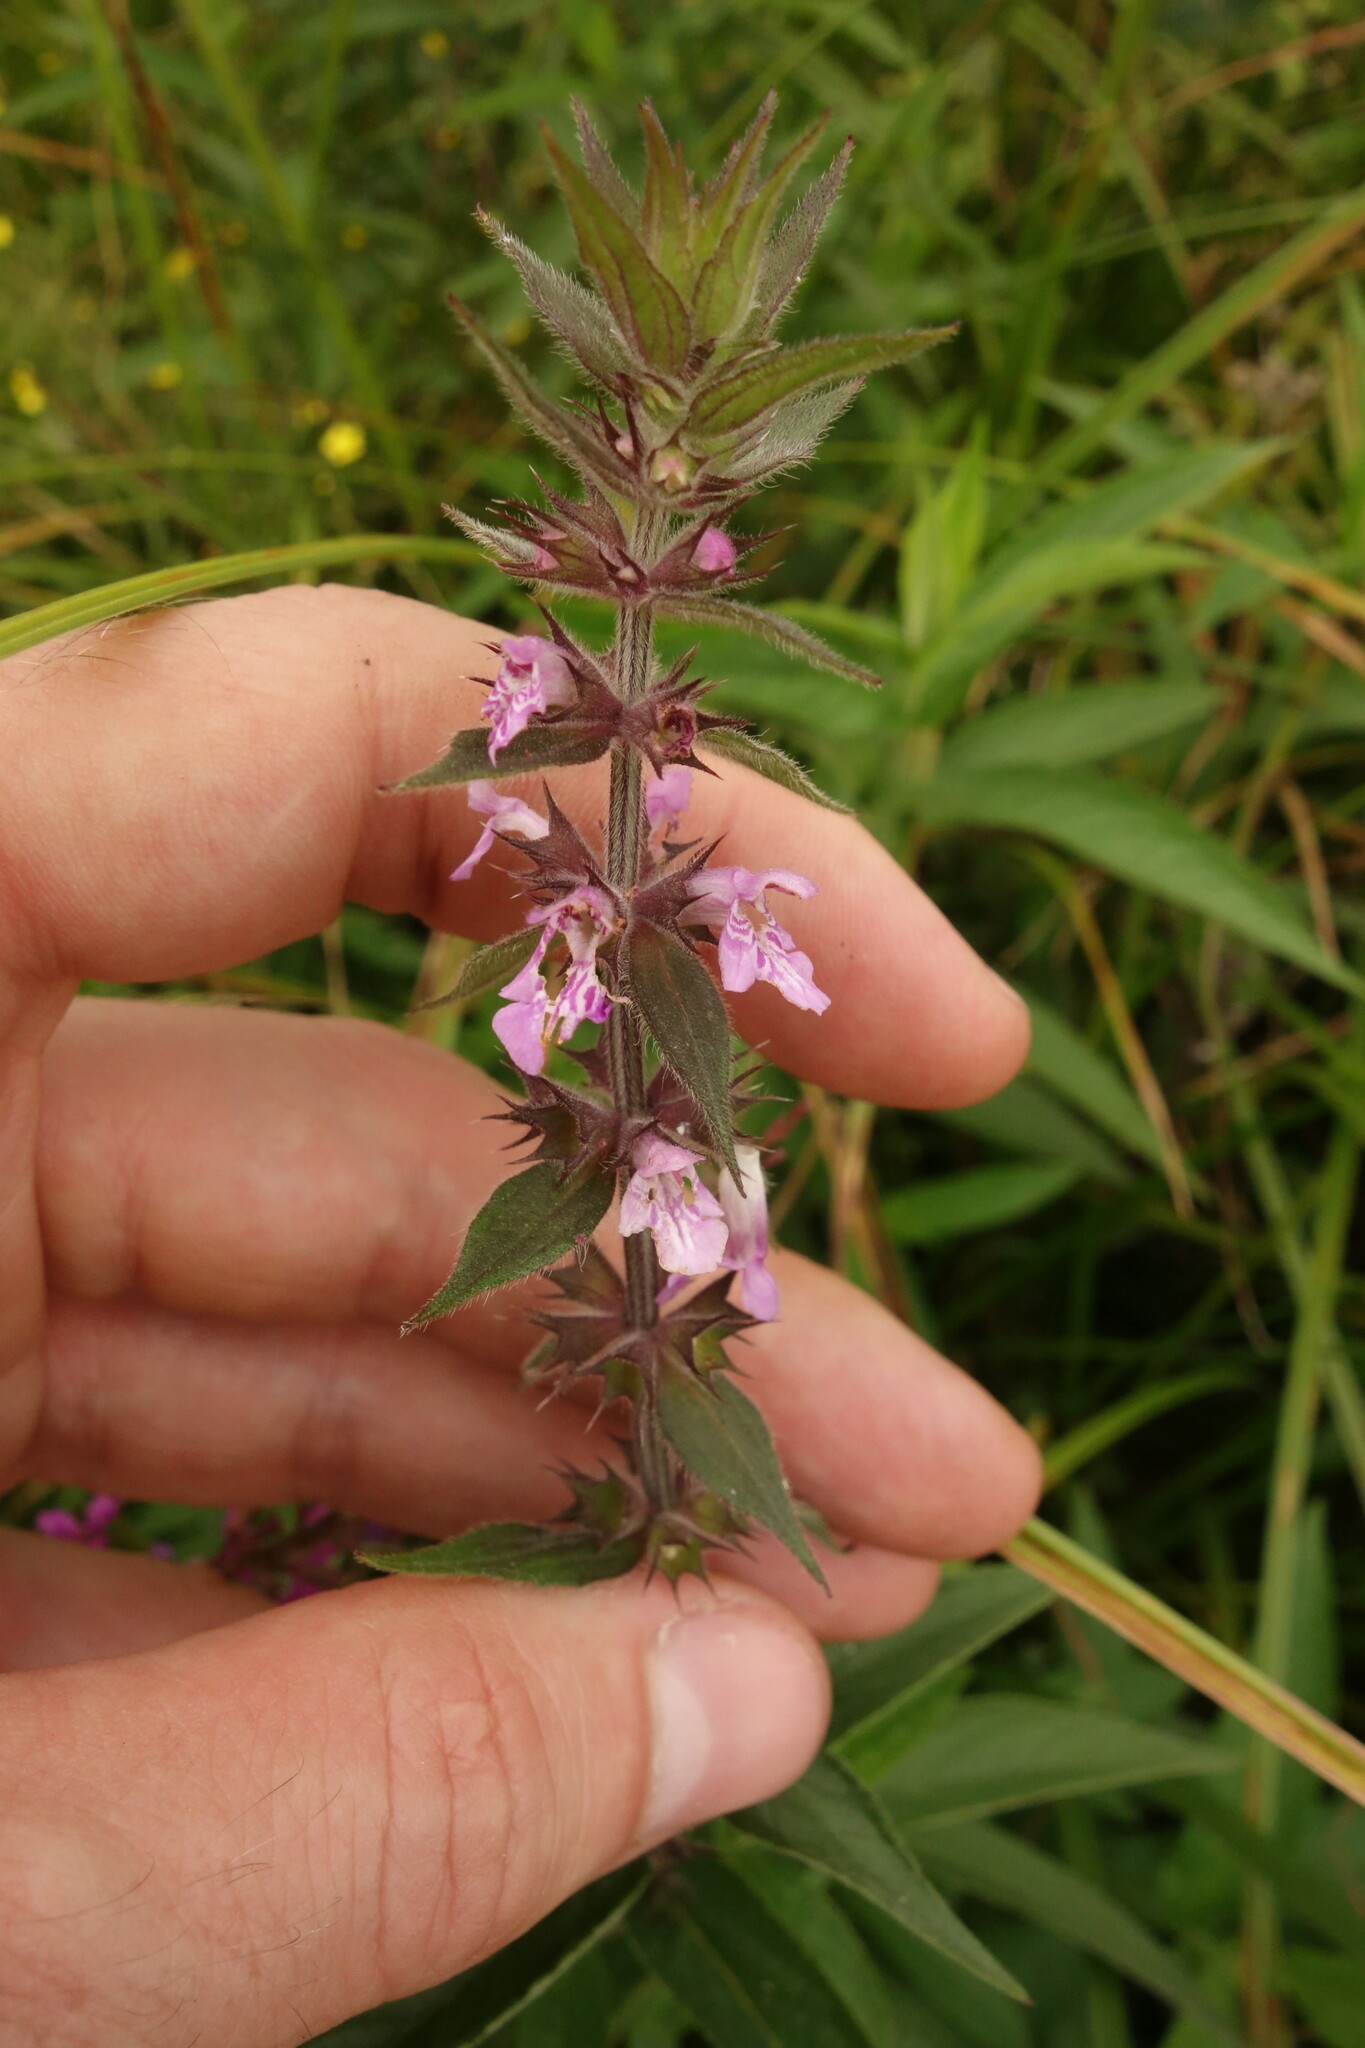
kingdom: Plantae
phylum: Tracheophyta
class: Magnoliopsida
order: Lamiales
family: Lamiaceae
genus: Stachys
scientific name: Stachys palustris
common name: Marsh woundwort
